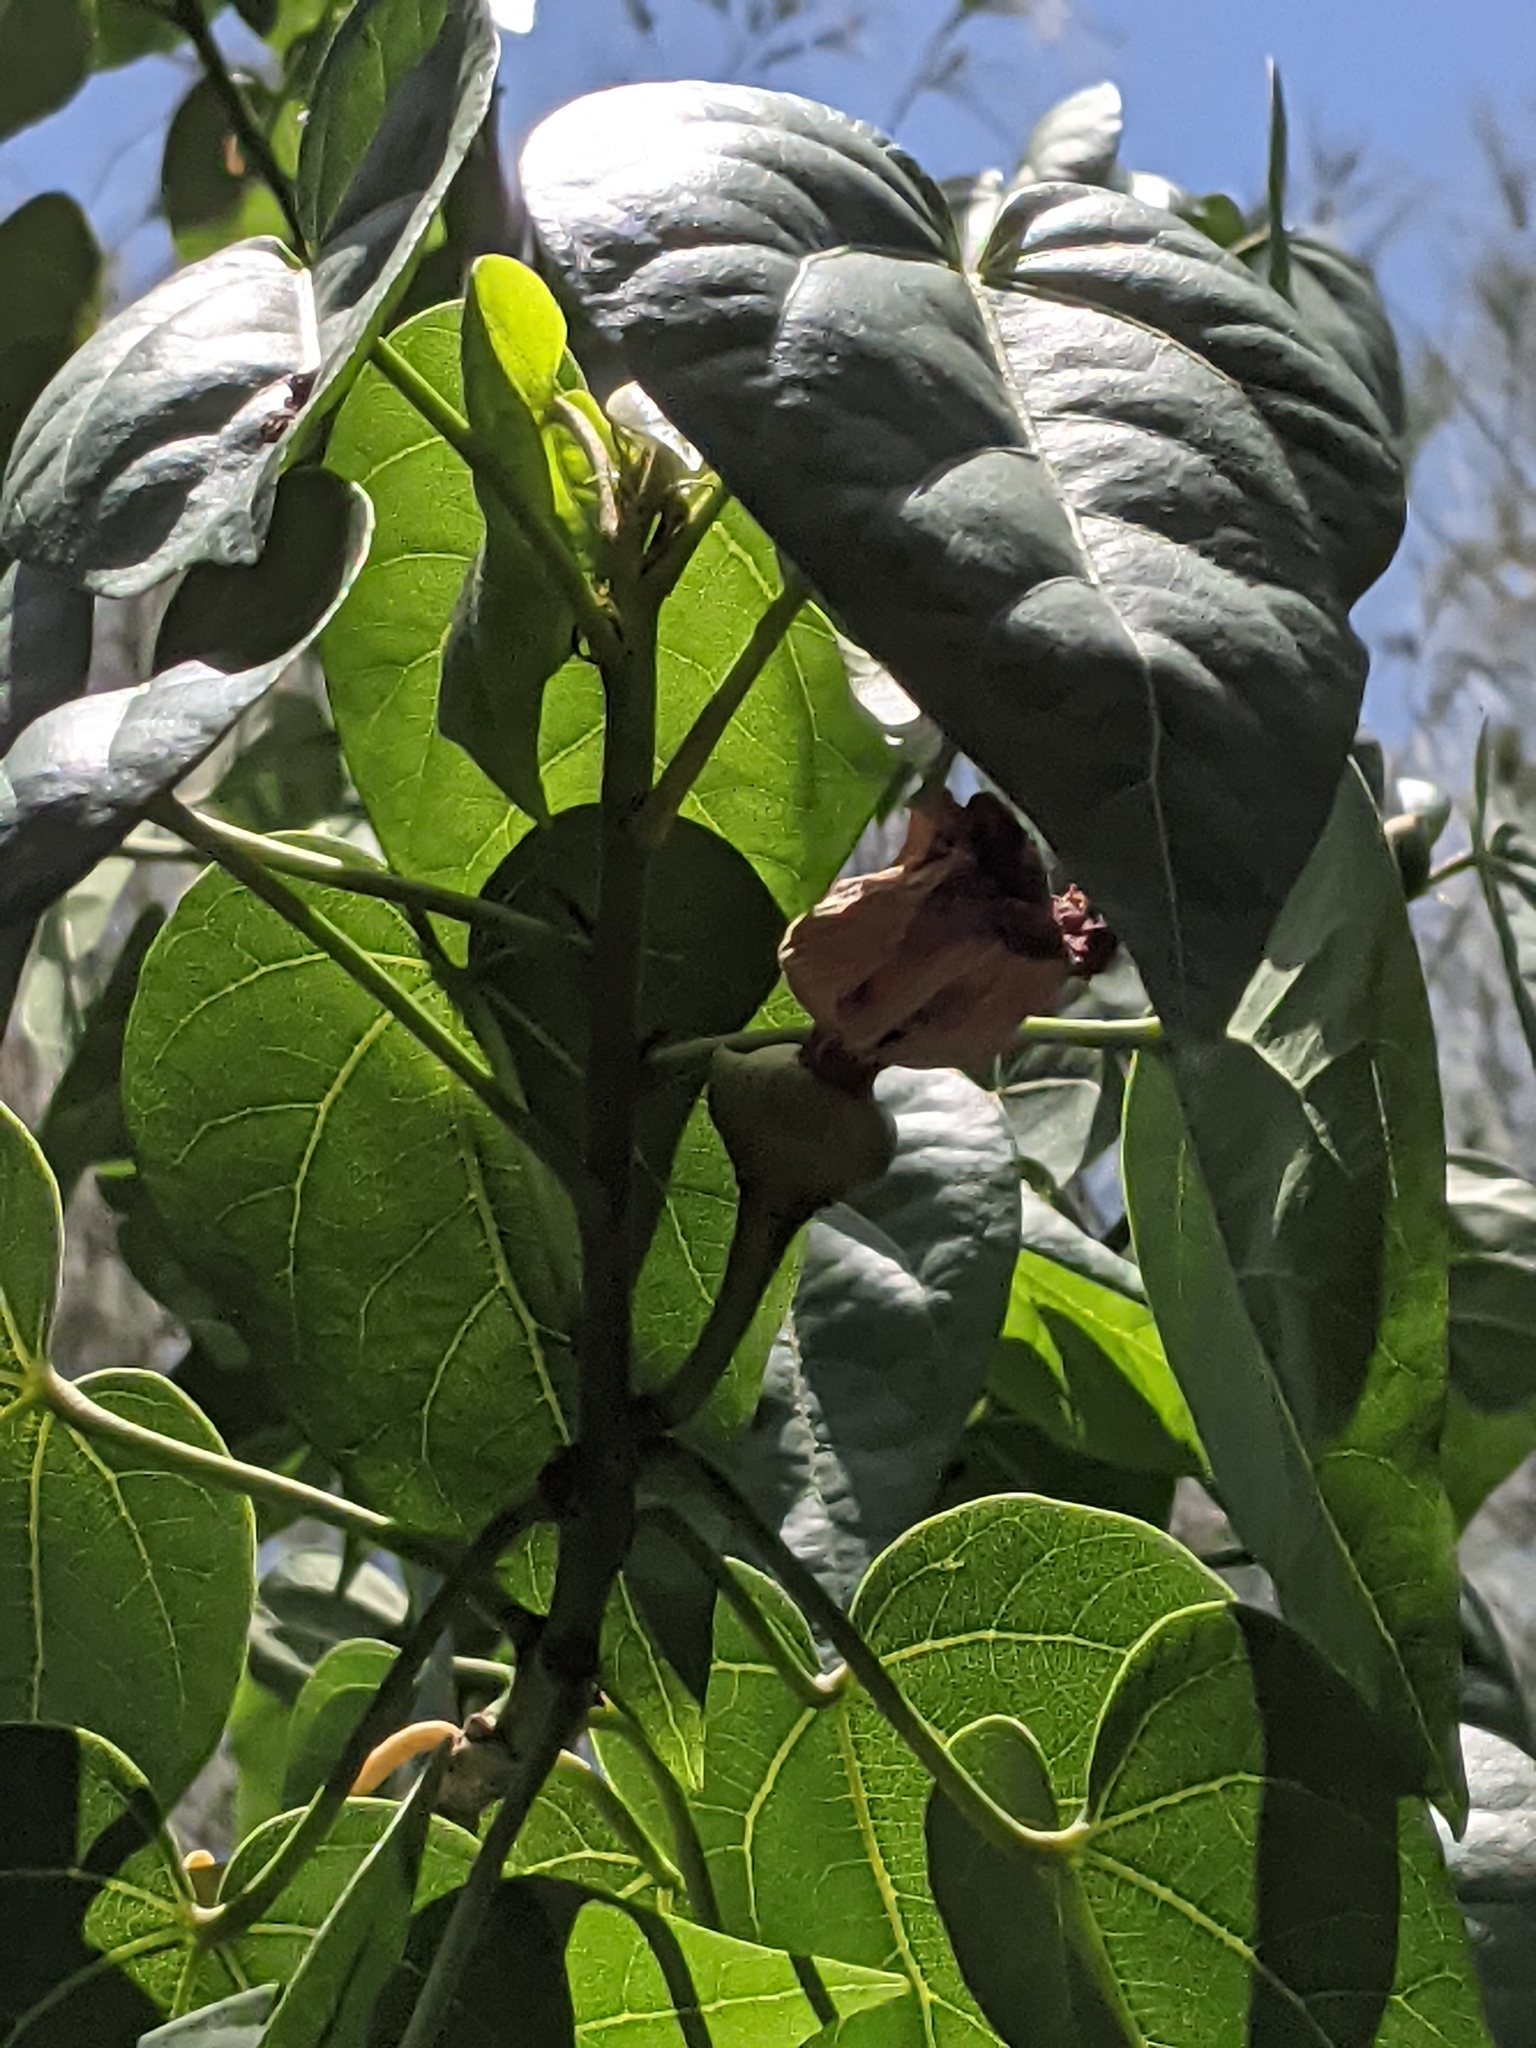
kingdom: Plantae
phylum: Tracheophyta
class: Magnoliopsida
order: Malvales
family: Malvaceae
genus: Thespesia
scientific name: Thespesia populnea
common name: Seaside mahoe
